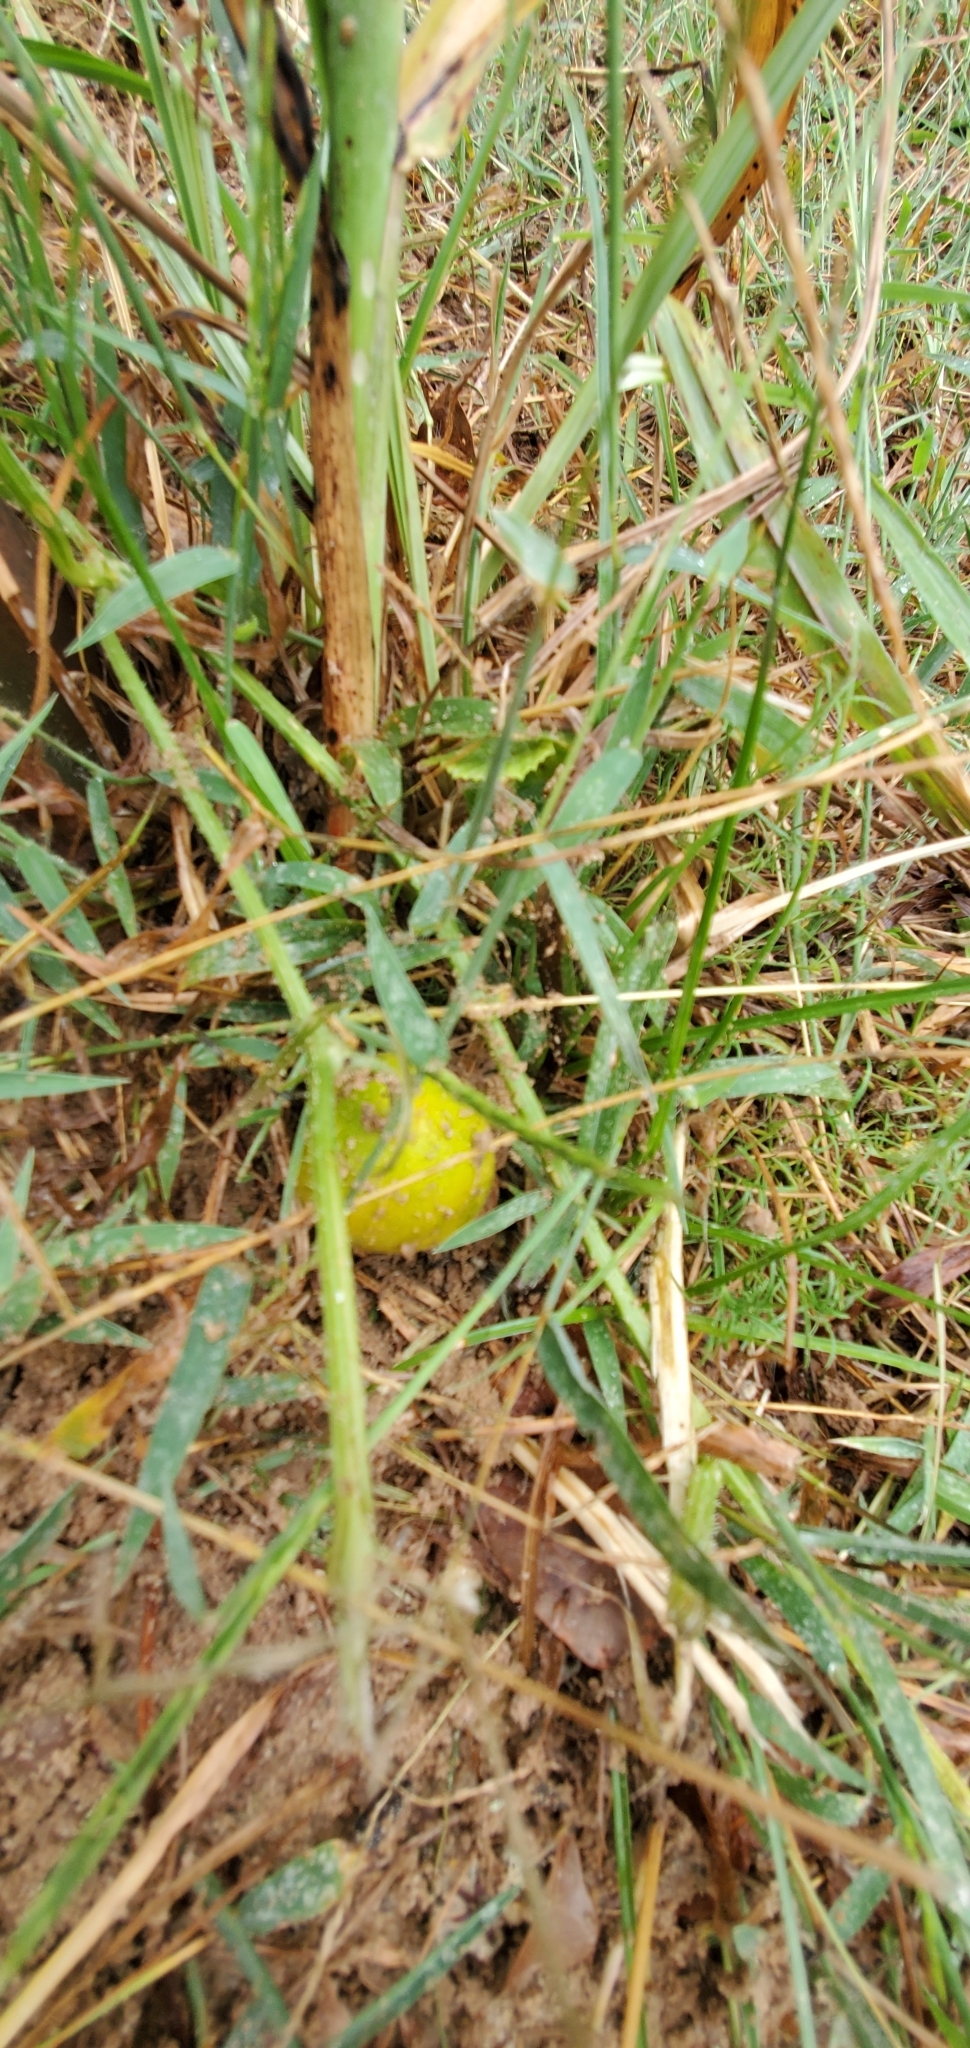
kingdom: Plantae
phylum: Tracheophyta
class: Magnoliopsida
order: Cucurbitales
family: Cucurbitaceae
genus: Cucumis
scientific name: Cucumis melo
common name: Melon
